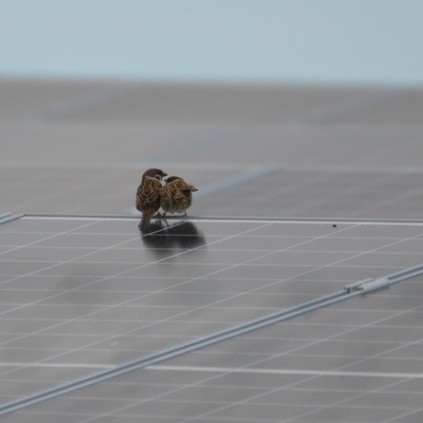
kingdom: Animalia
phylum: Chordata
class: Aves
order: Passeriformes
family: Passeridae
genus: Passer
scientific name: Passer montanus
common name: Eurasian tree sparrow
